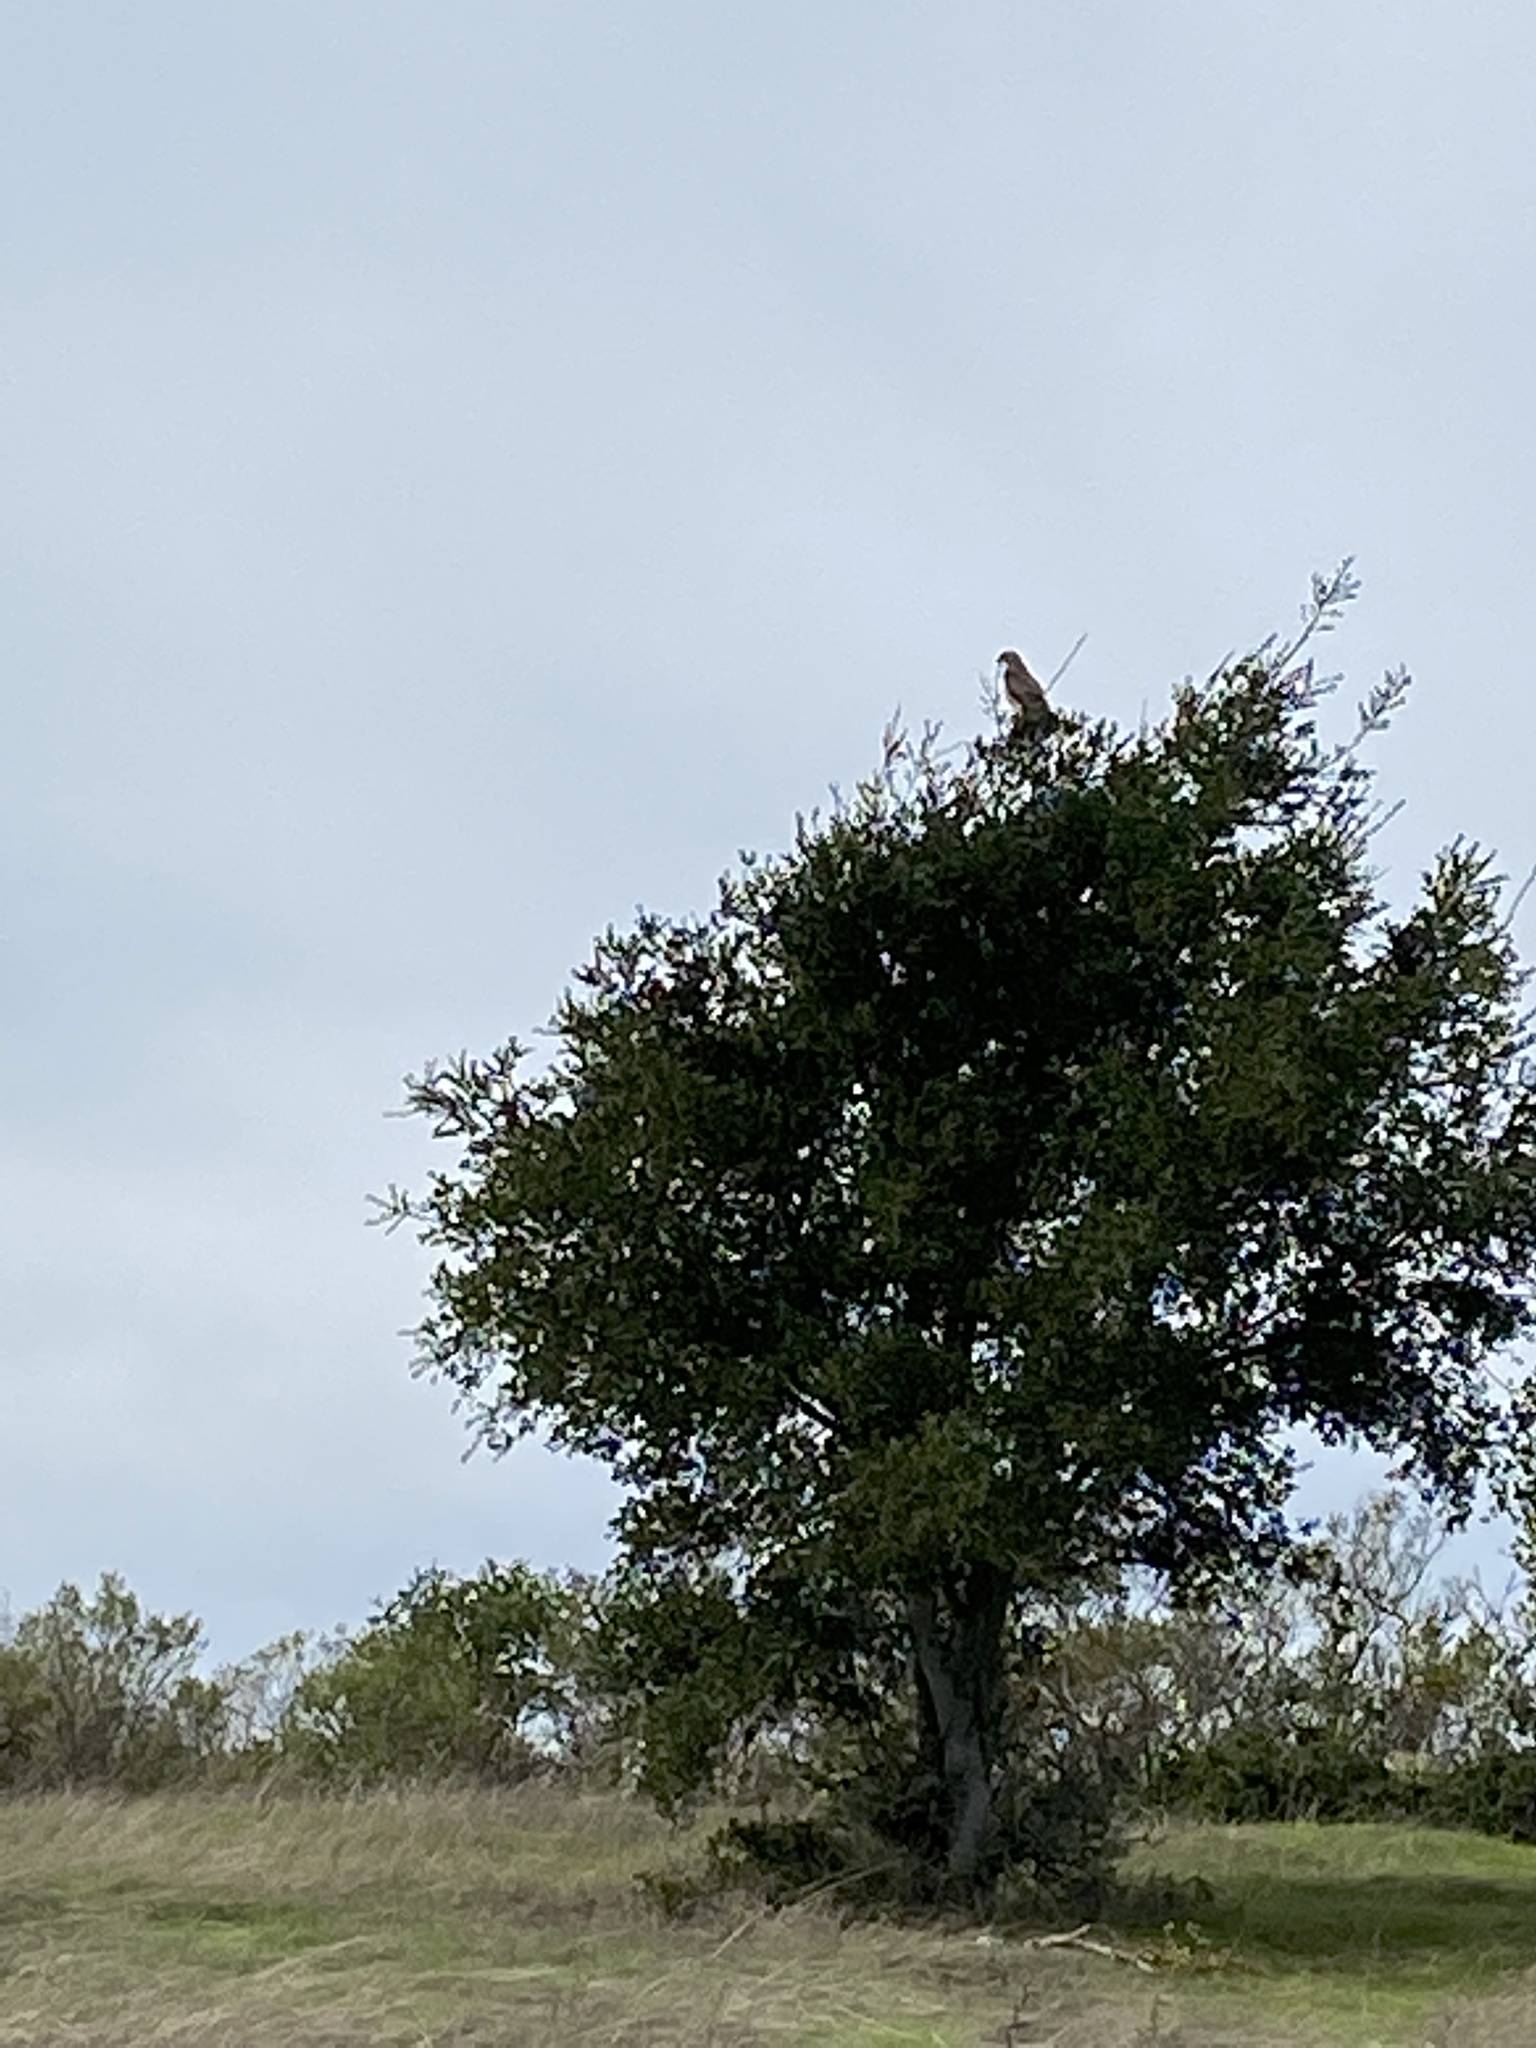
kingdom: Animalia
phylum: Chordata
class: Aves
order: Accipitriformes
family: Accipitridae
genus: Buteo
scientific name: Buteo jamaicensis
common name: Red-tailed hawk
